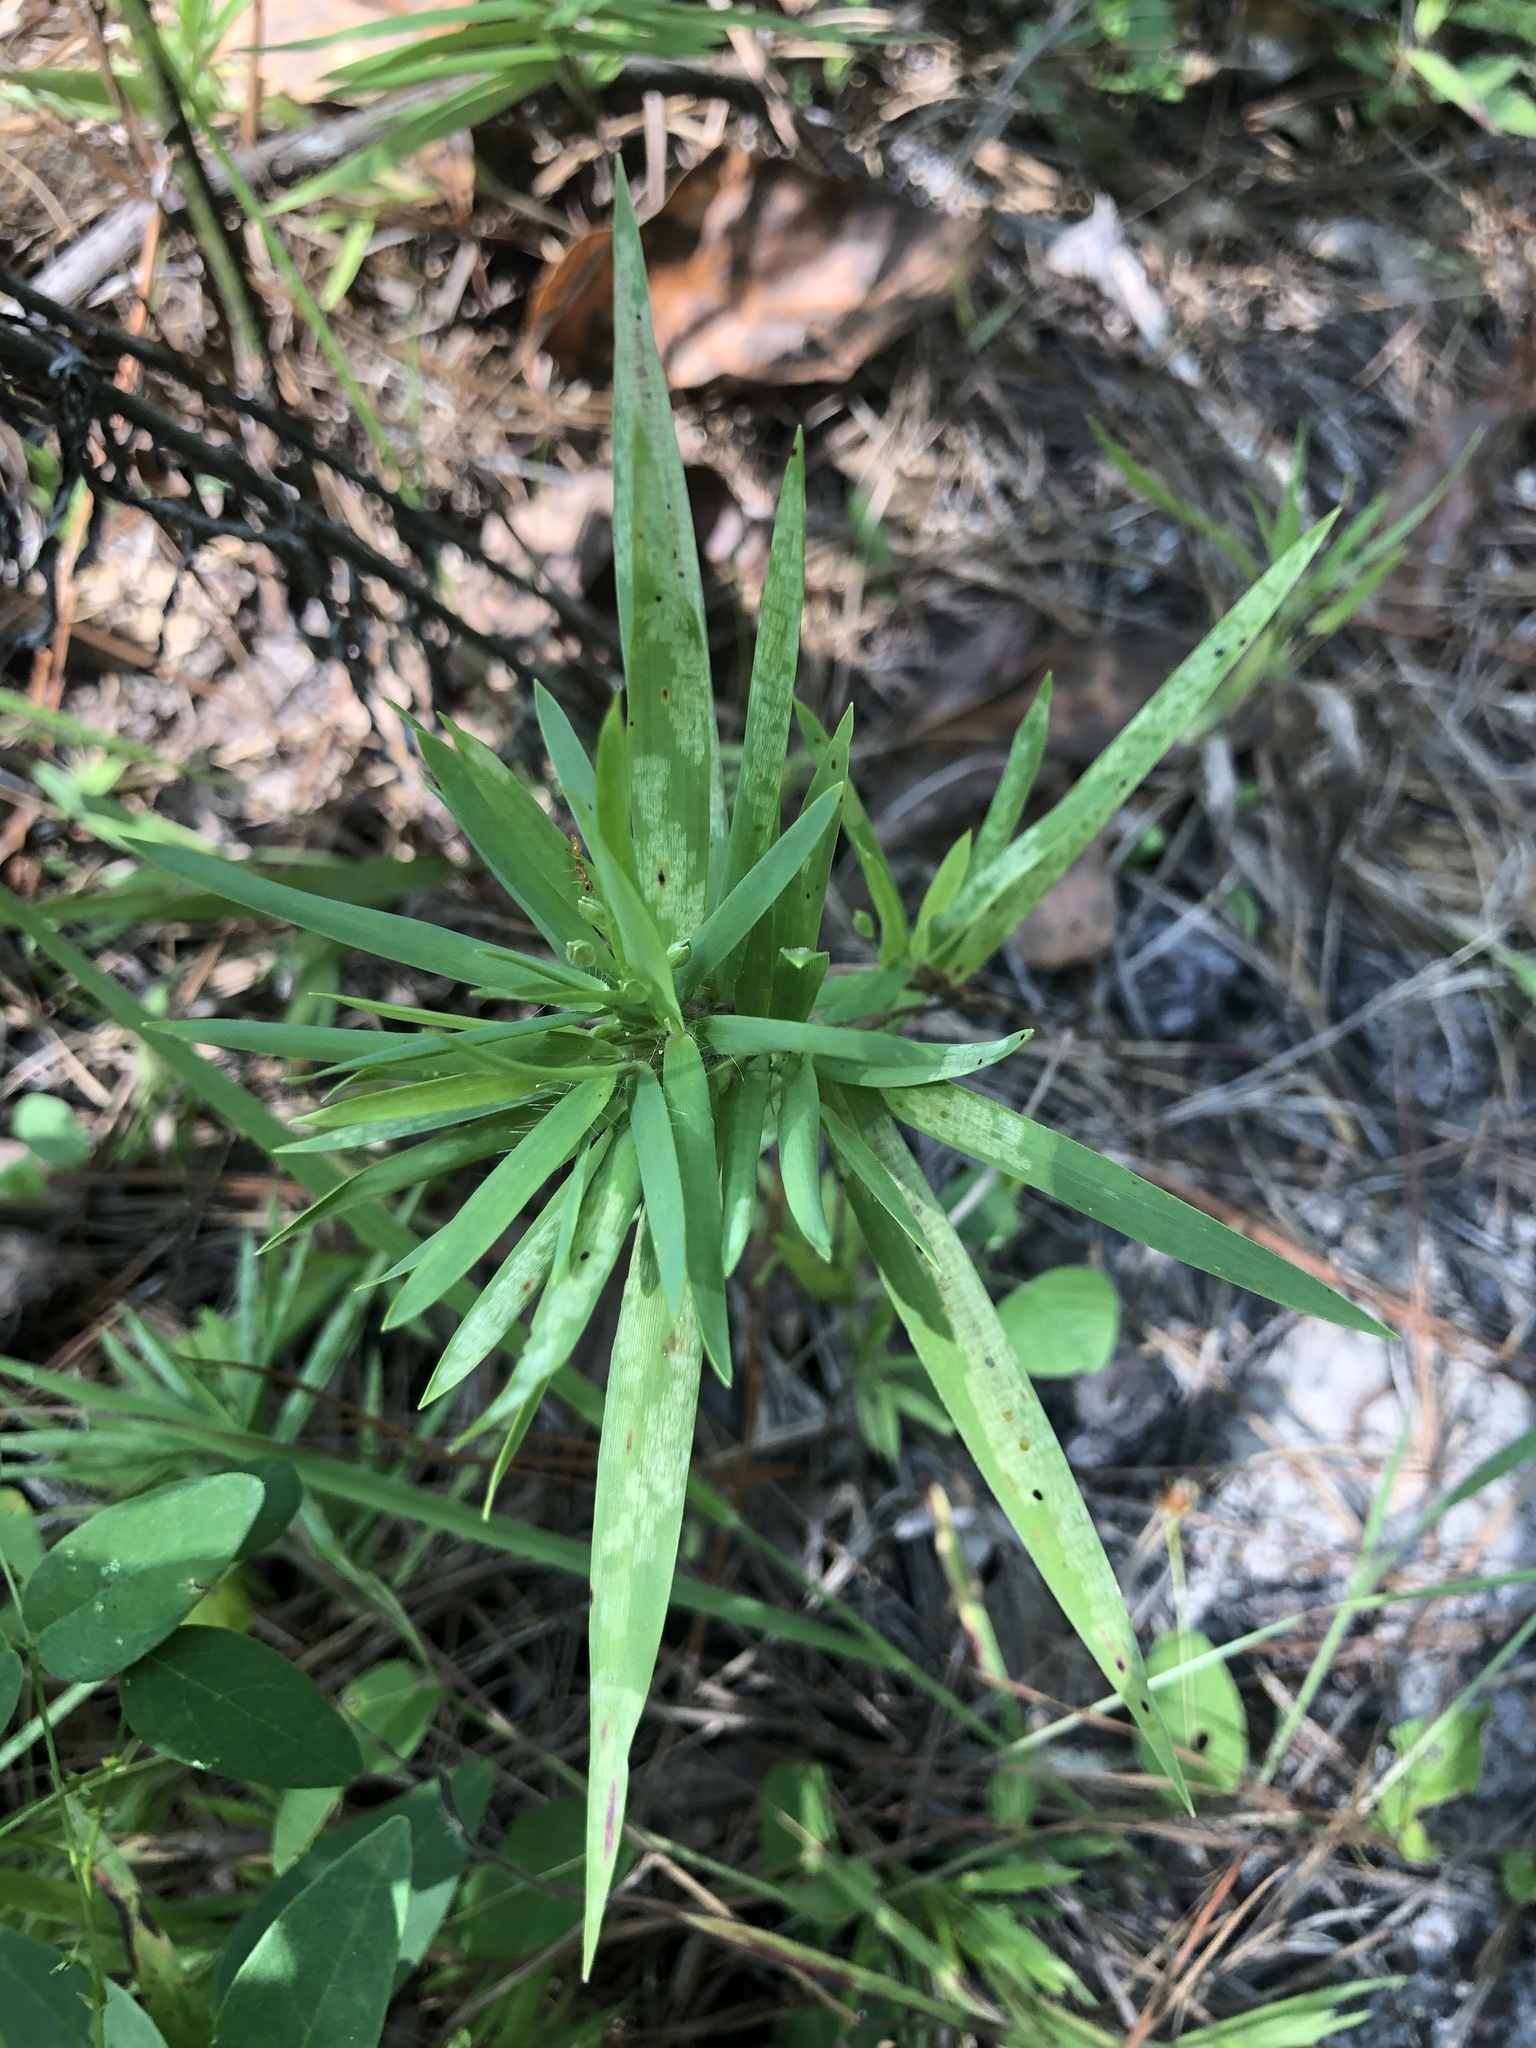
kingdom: Plantae
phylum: Tracheophyta
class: Liliopsida
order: Poales
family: Poaceae
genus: Dichanthelium
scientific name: Dichanthelium oligosanthes
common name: Few-anther obscuregrass
